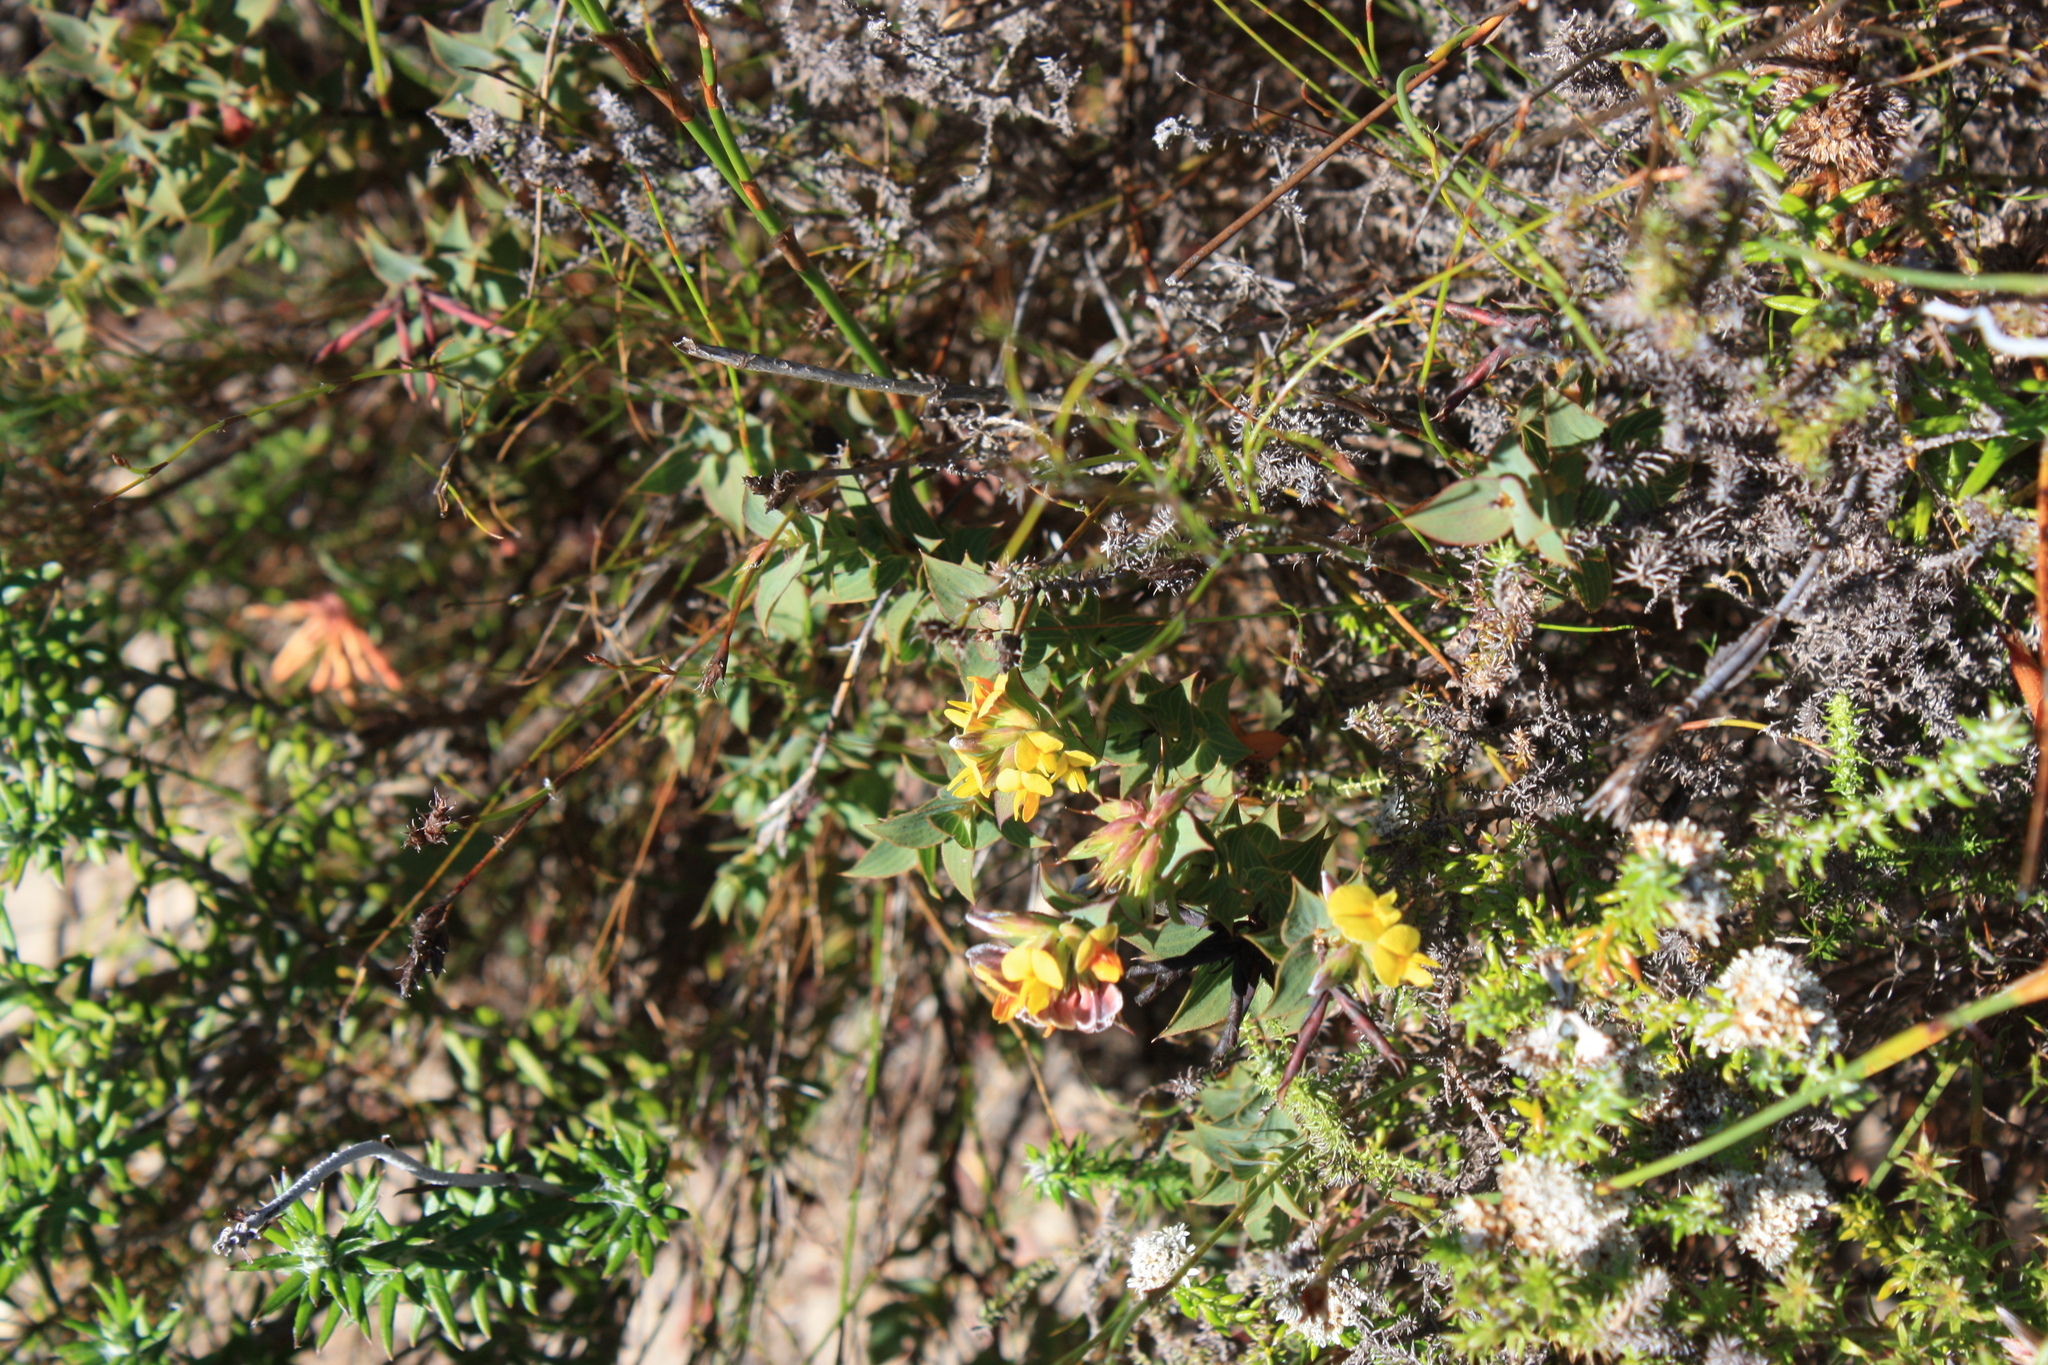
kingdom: Plantae
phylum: Tracheophyta
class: Magnoliopsida
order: Fabales
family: Fabaceae
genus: Aspalathus
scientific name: Aspalathus crenata
